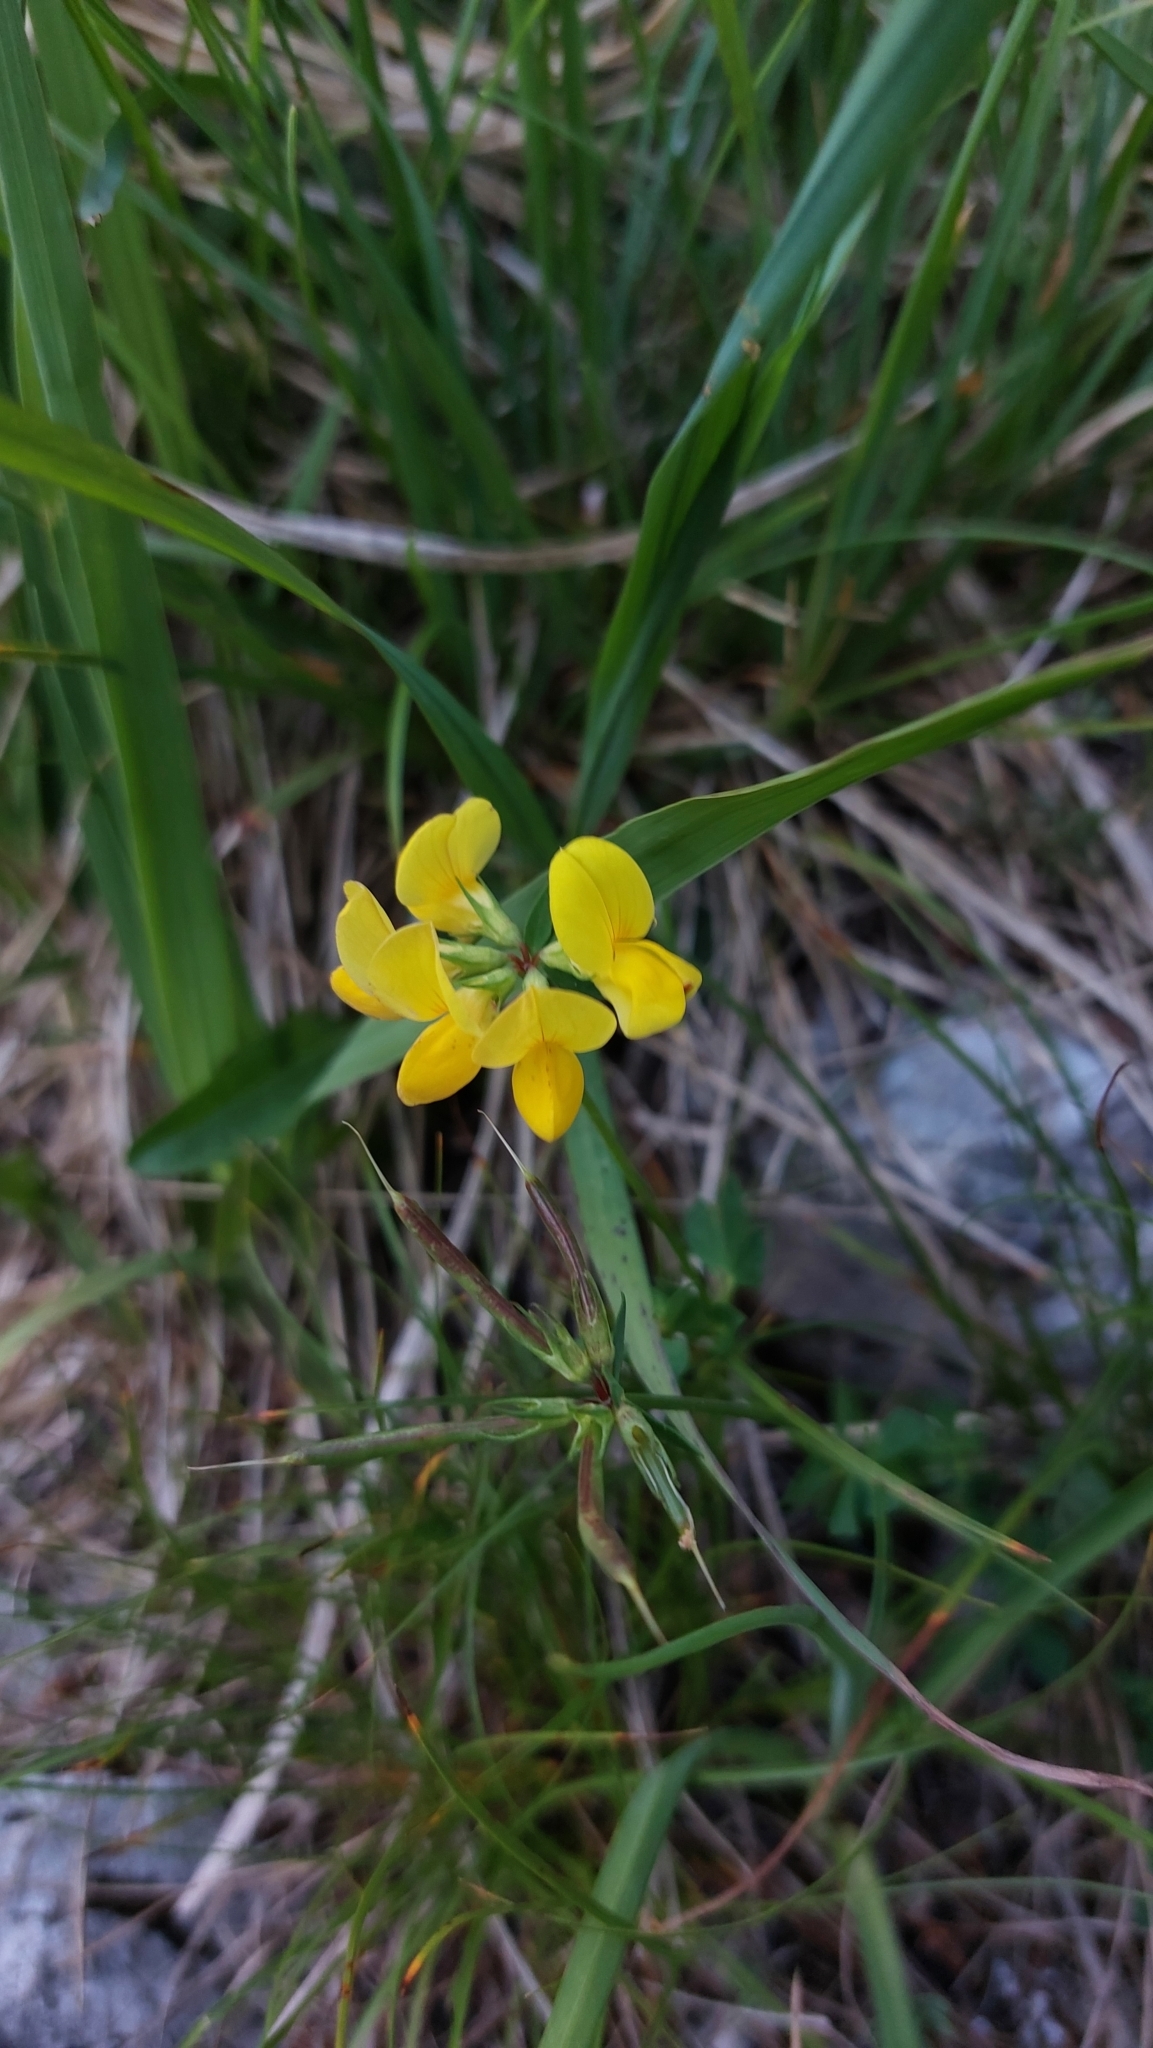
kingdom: Plantae
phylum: Tracheophyta
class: Magnoliopsida
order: Fabales
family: Fabaceae
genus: Lotus
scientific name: Lotus corniculatus
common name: Common bird's-foot-trefoil
